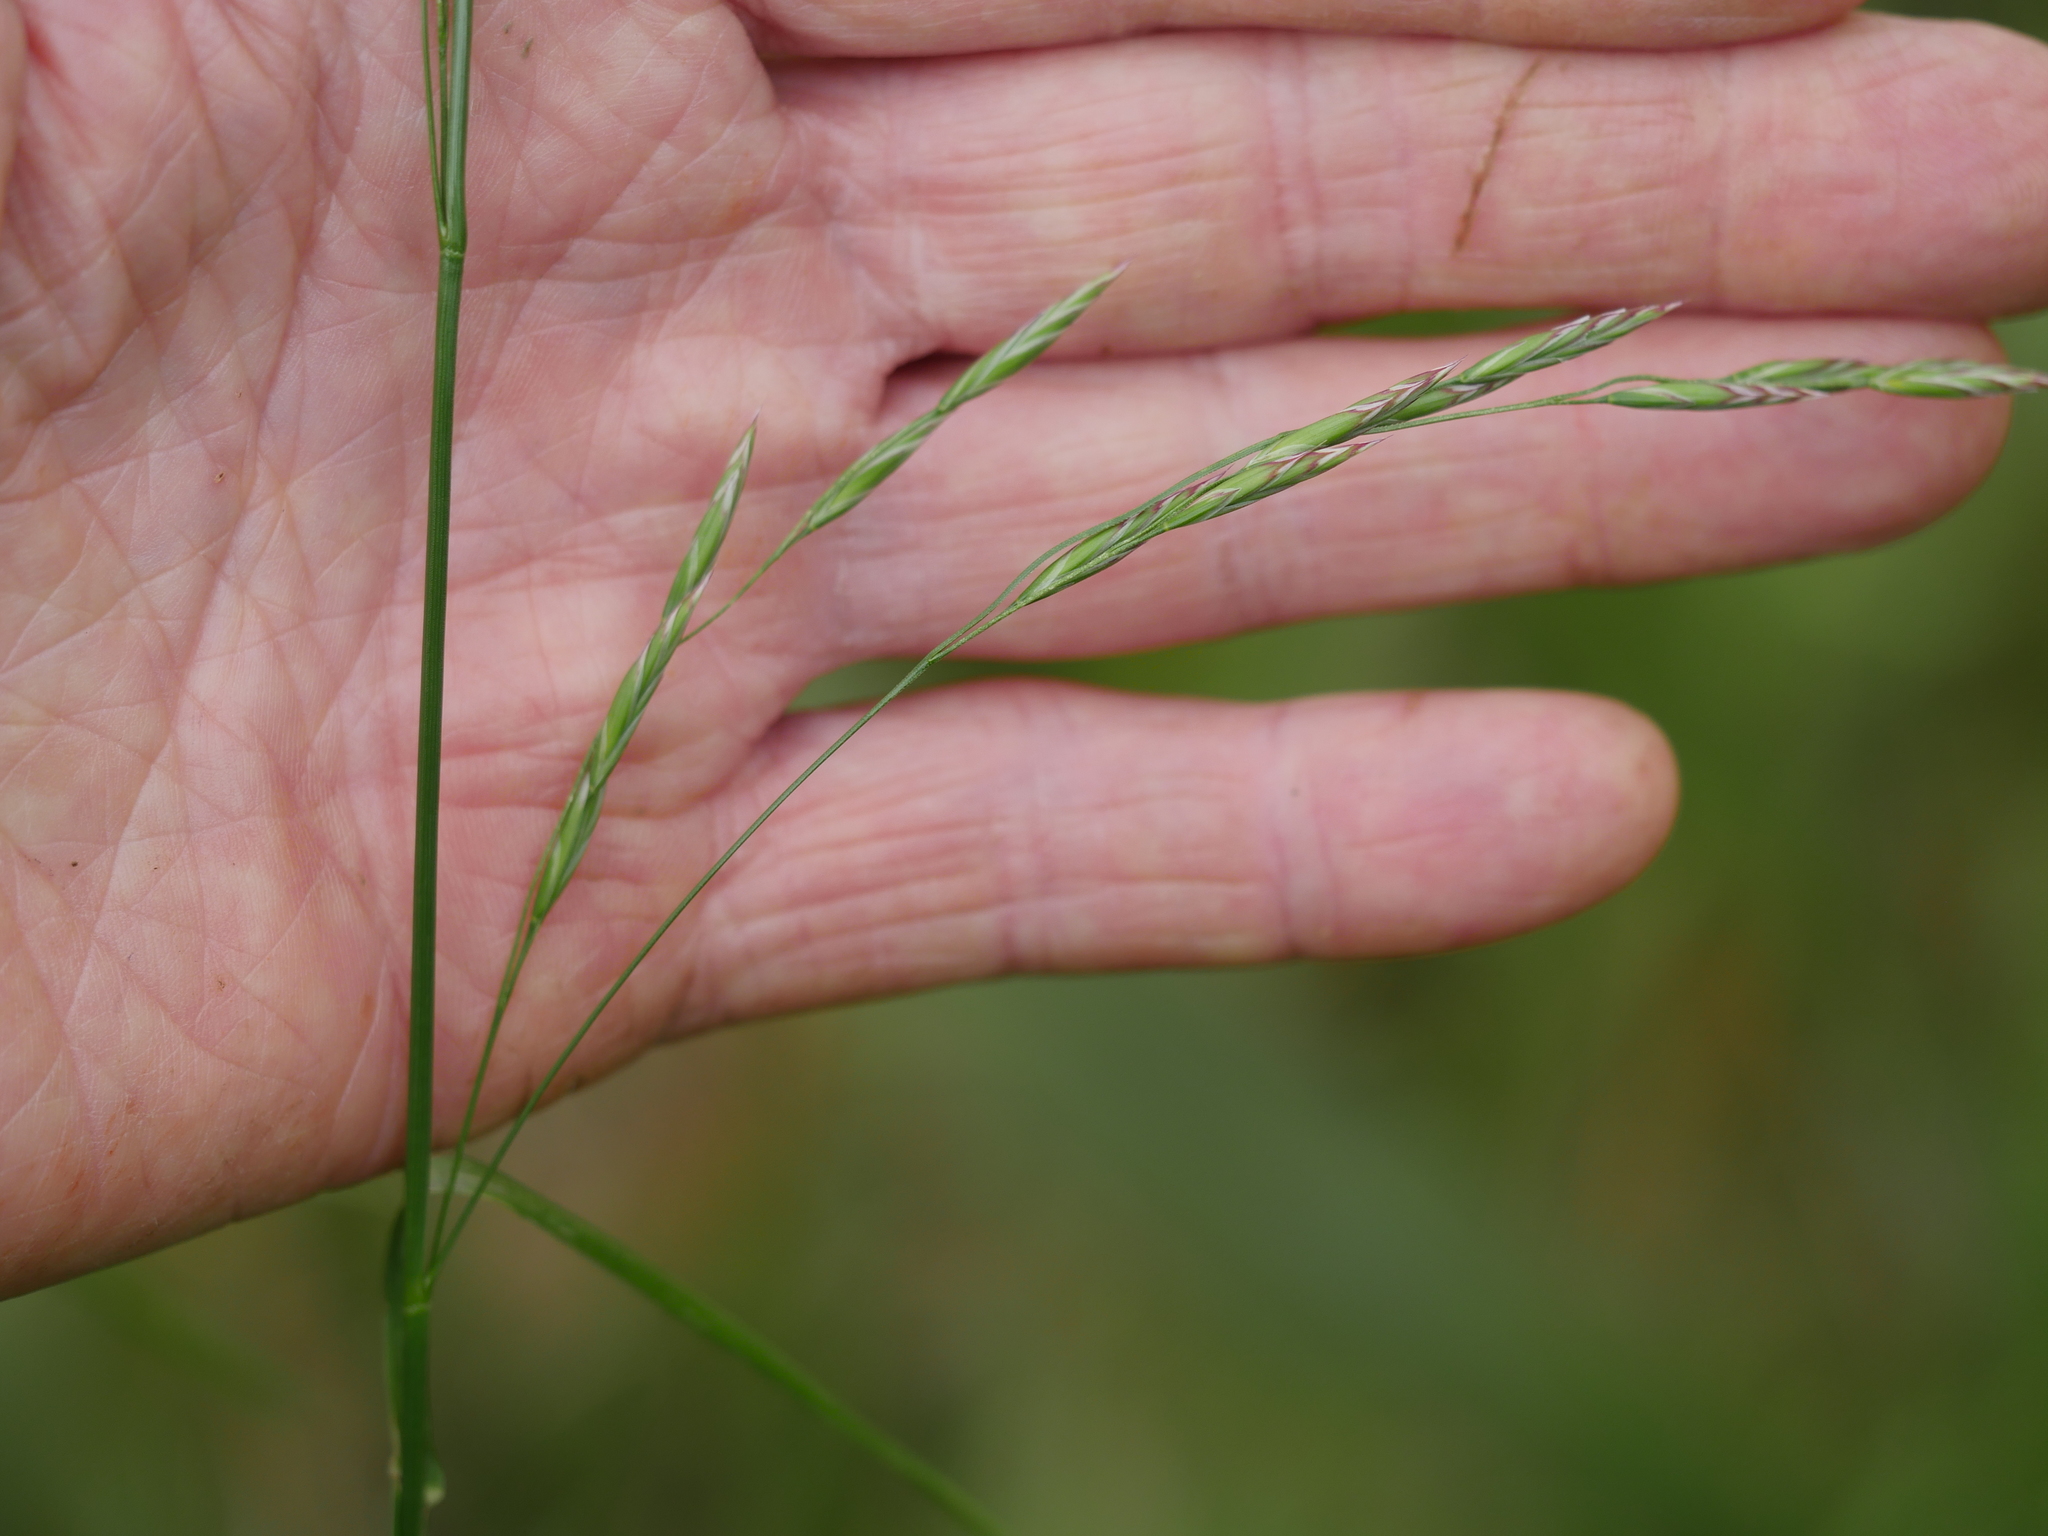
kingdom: Plantae
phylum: Tracheophyta
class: Liliopsida
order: Poales
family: Poaceae
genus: Lolium
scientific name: Lolium arundinaceum
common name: Reed fescue
